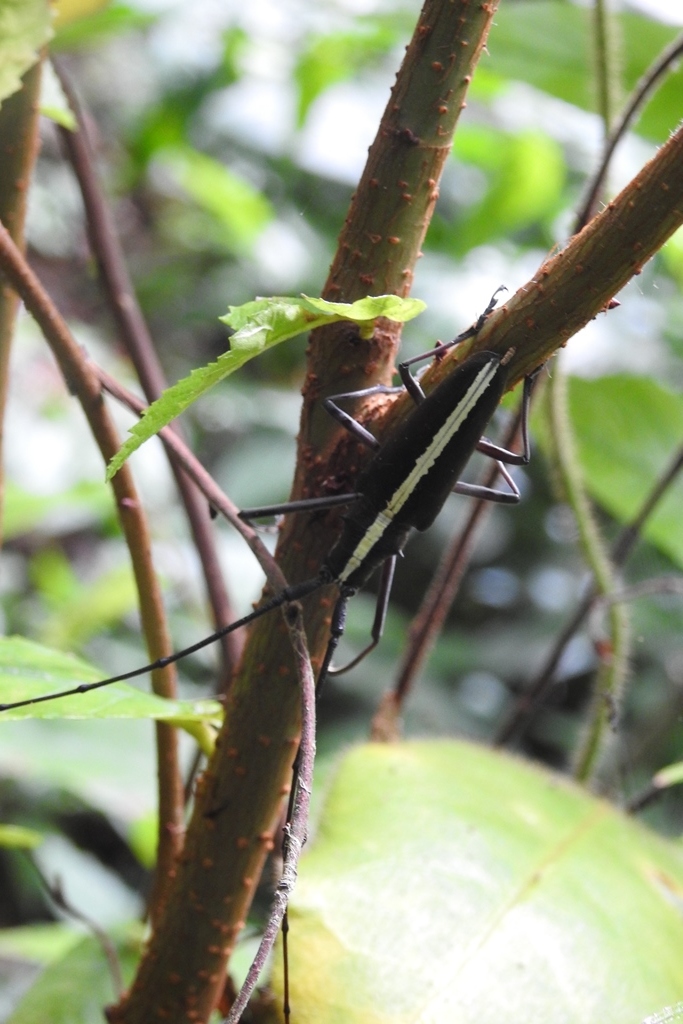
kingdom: Animalia
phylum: Arthropoda
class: Insecta
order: Coleoptera
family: Cerambycidae
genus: Taeniotes
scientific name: Taeniotes scalatus
